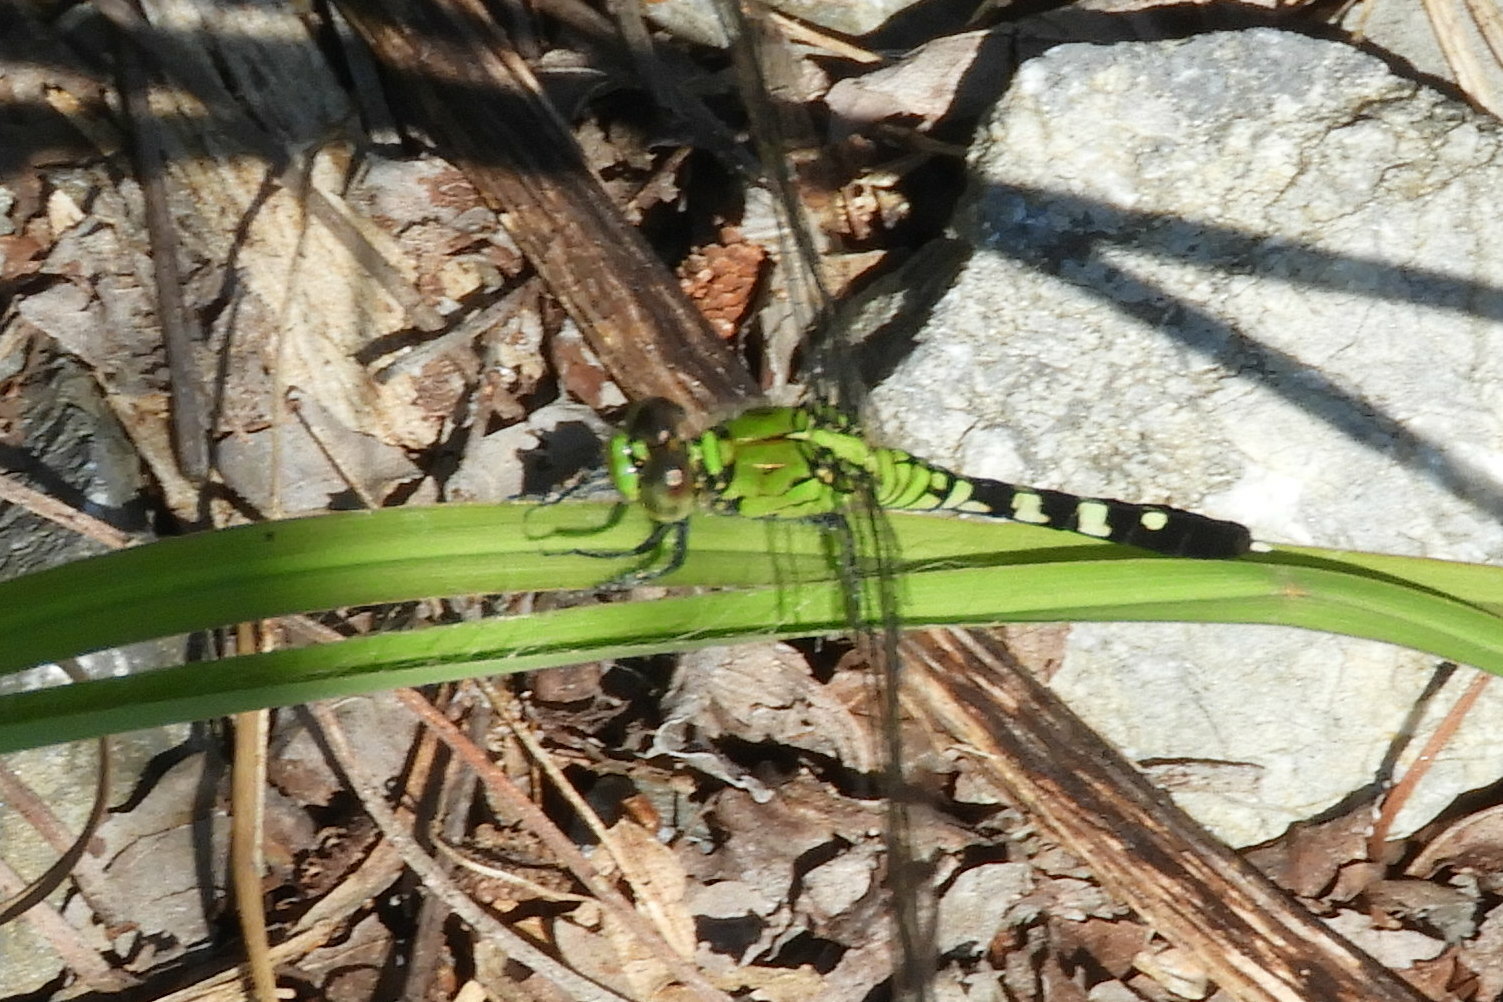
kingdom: Animalia
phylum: Arthropoda
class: Insecta
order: Odonata
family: Libellulidae
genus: Erythemis
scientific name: Erythemis simplicicollis
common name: Eastern pondhawk
